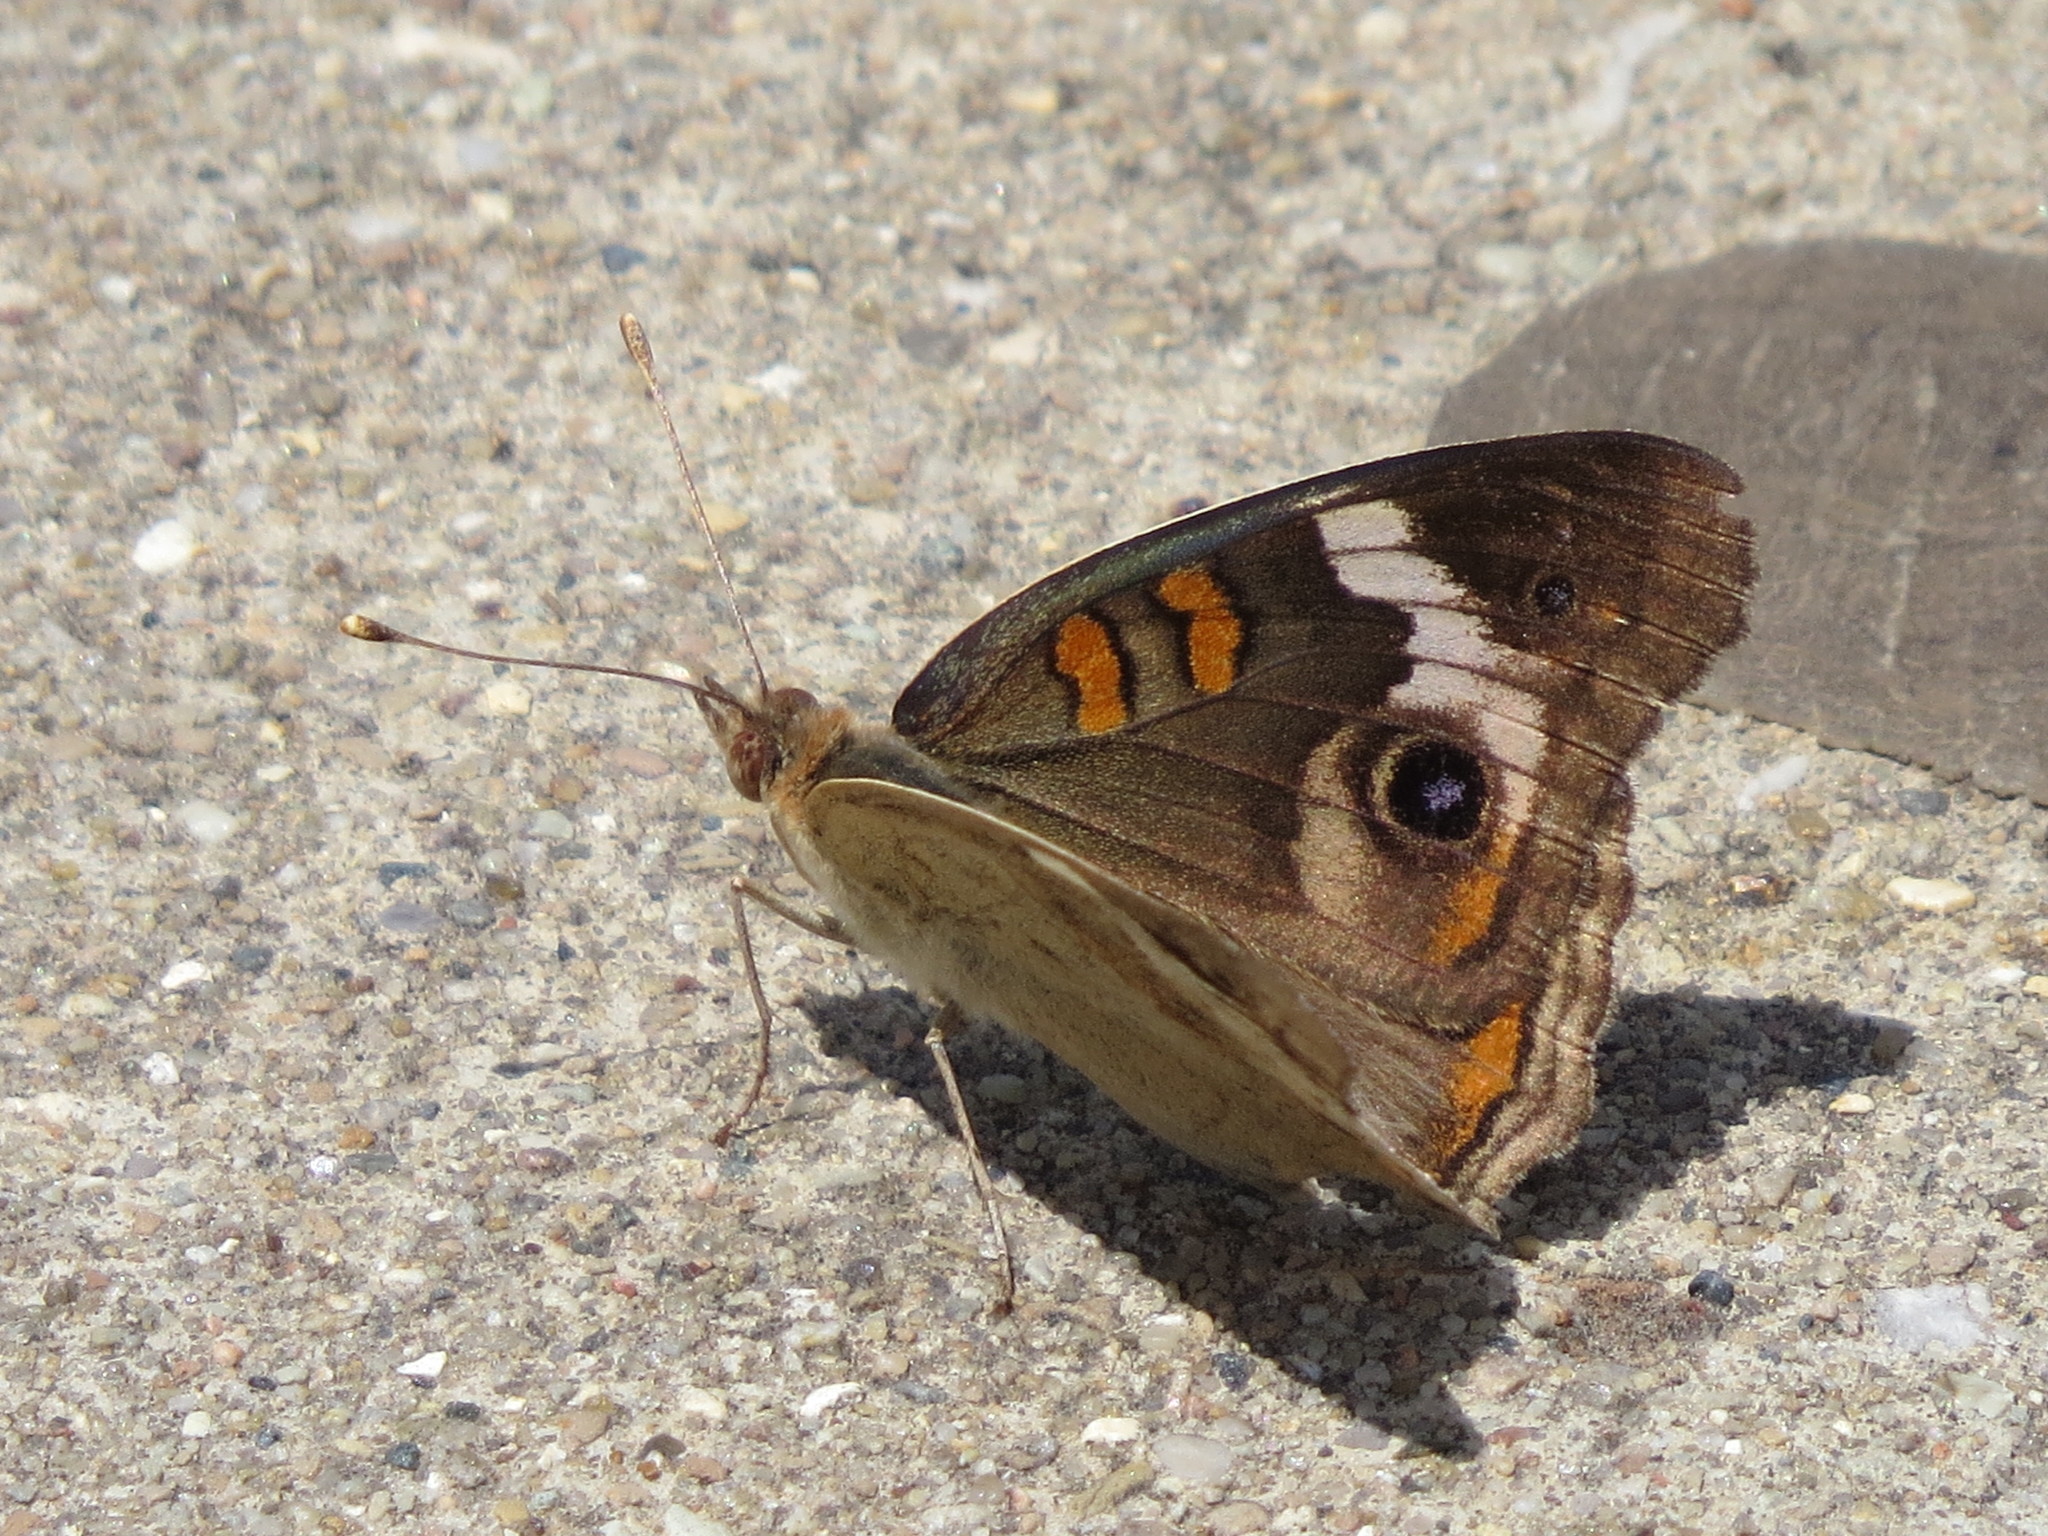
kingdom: Animalia
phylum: Arthropoda
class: Insecta
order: Lepidoptera
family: Nymphalidae
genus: Junonia
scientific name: Junonia coenia
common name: Common buckeye
